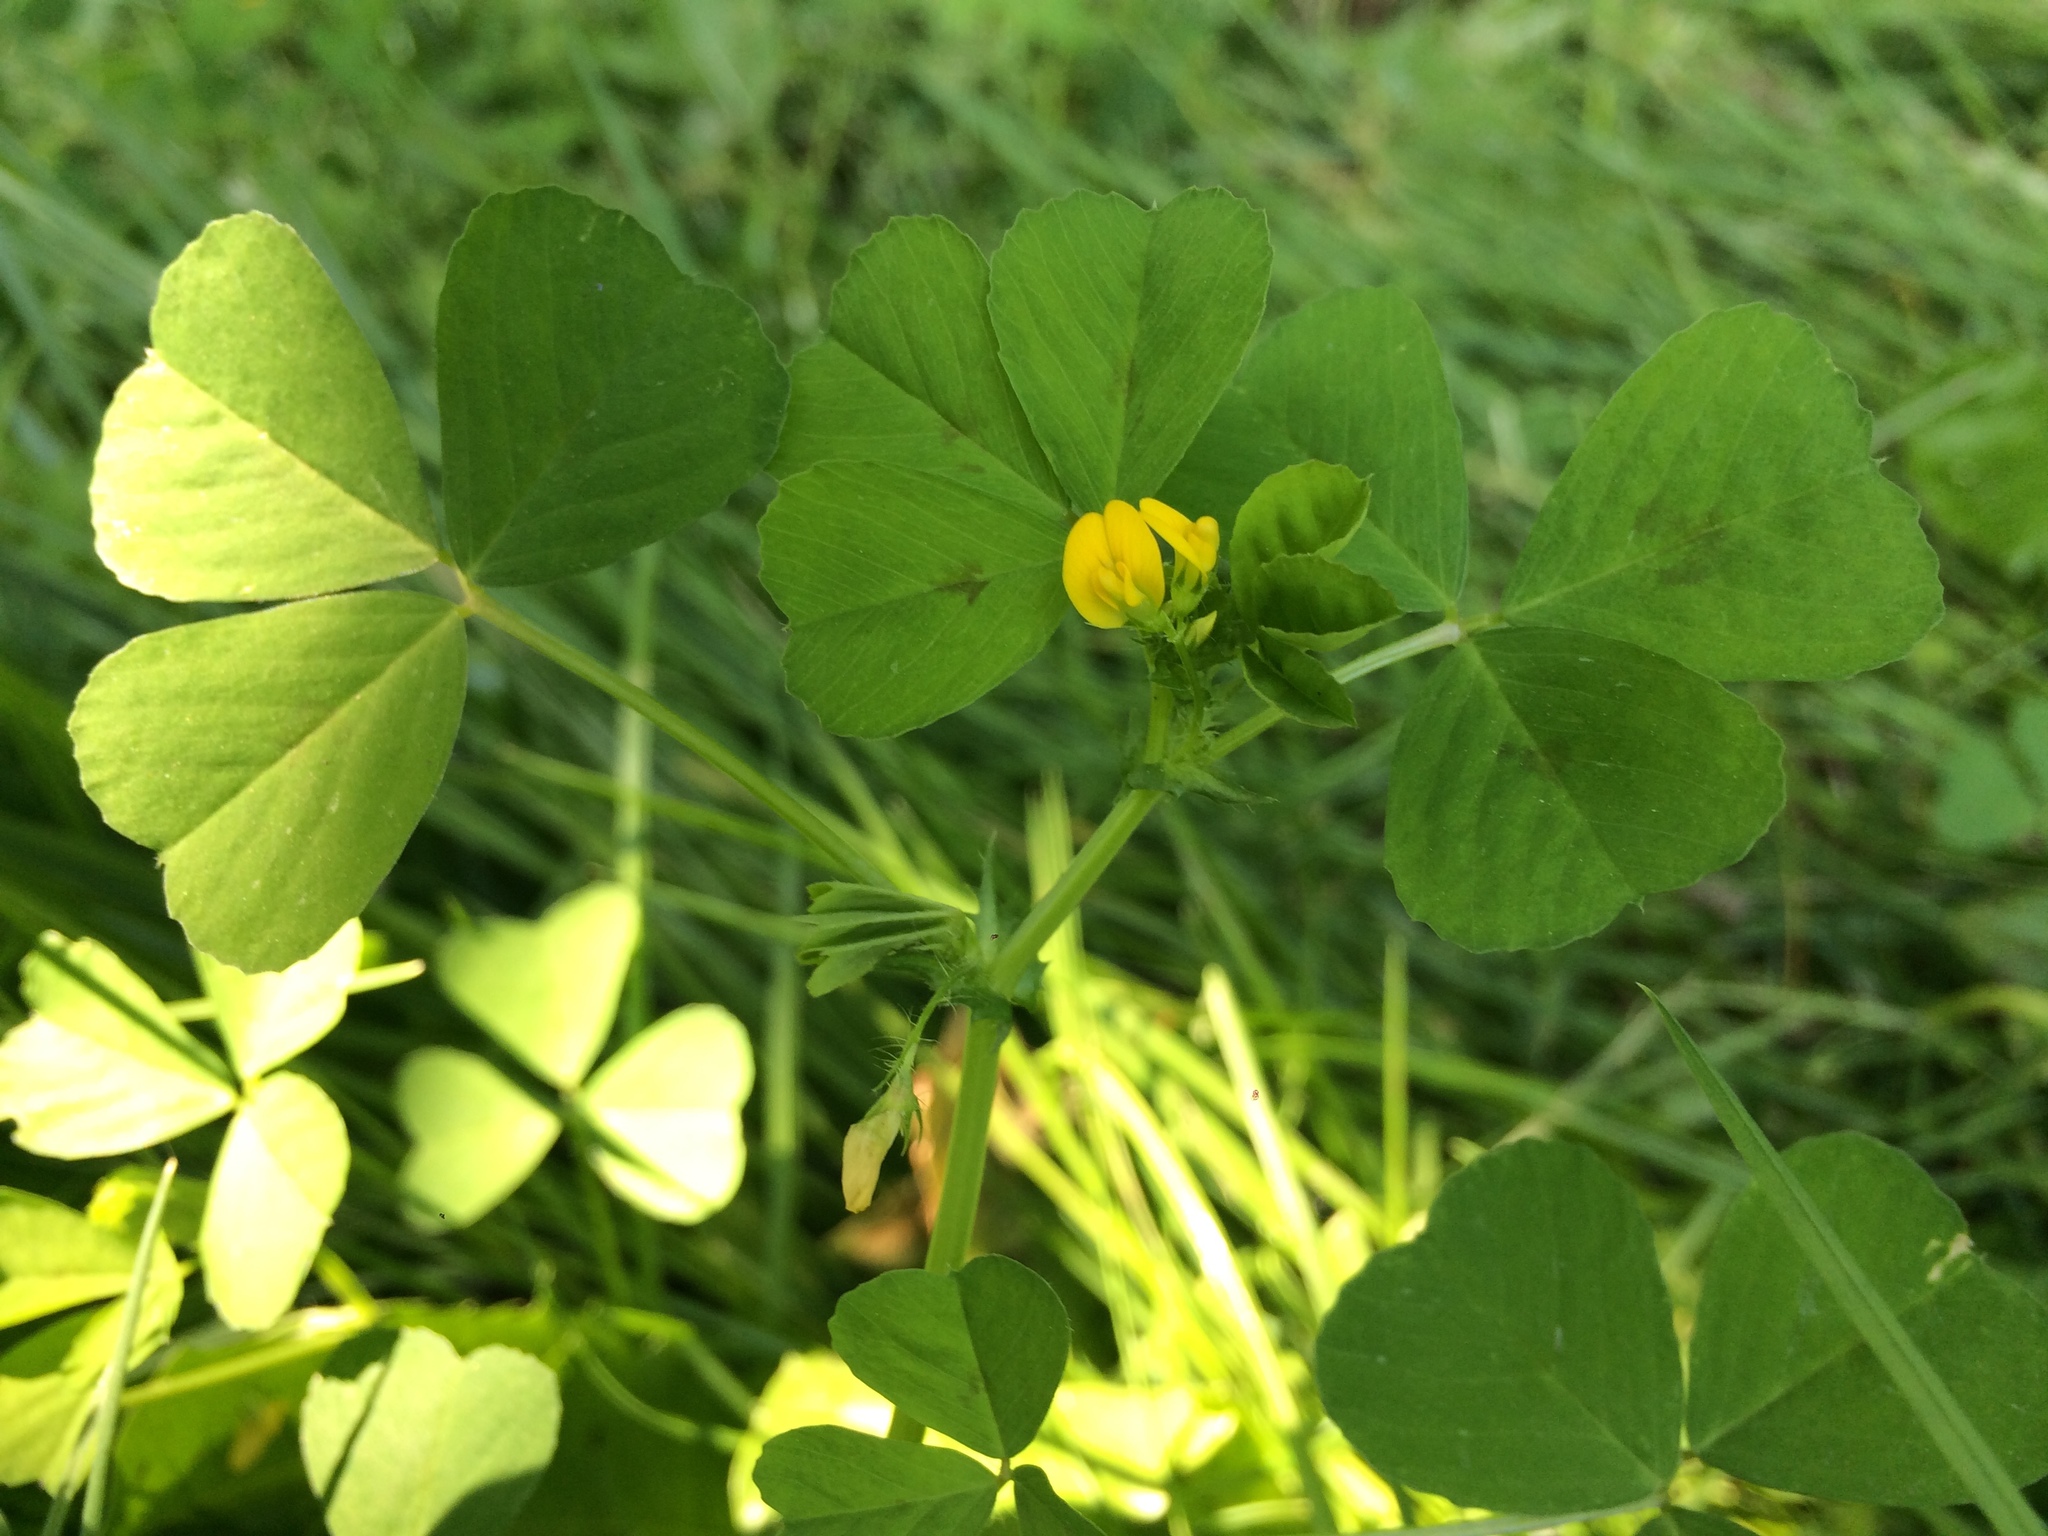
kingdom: Plantae
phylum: Tracheophyta
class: Magnoliopsida
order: Fabales
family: Fabaceae
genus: Medicago
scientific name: Medicago arabica
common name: Spotted medick
